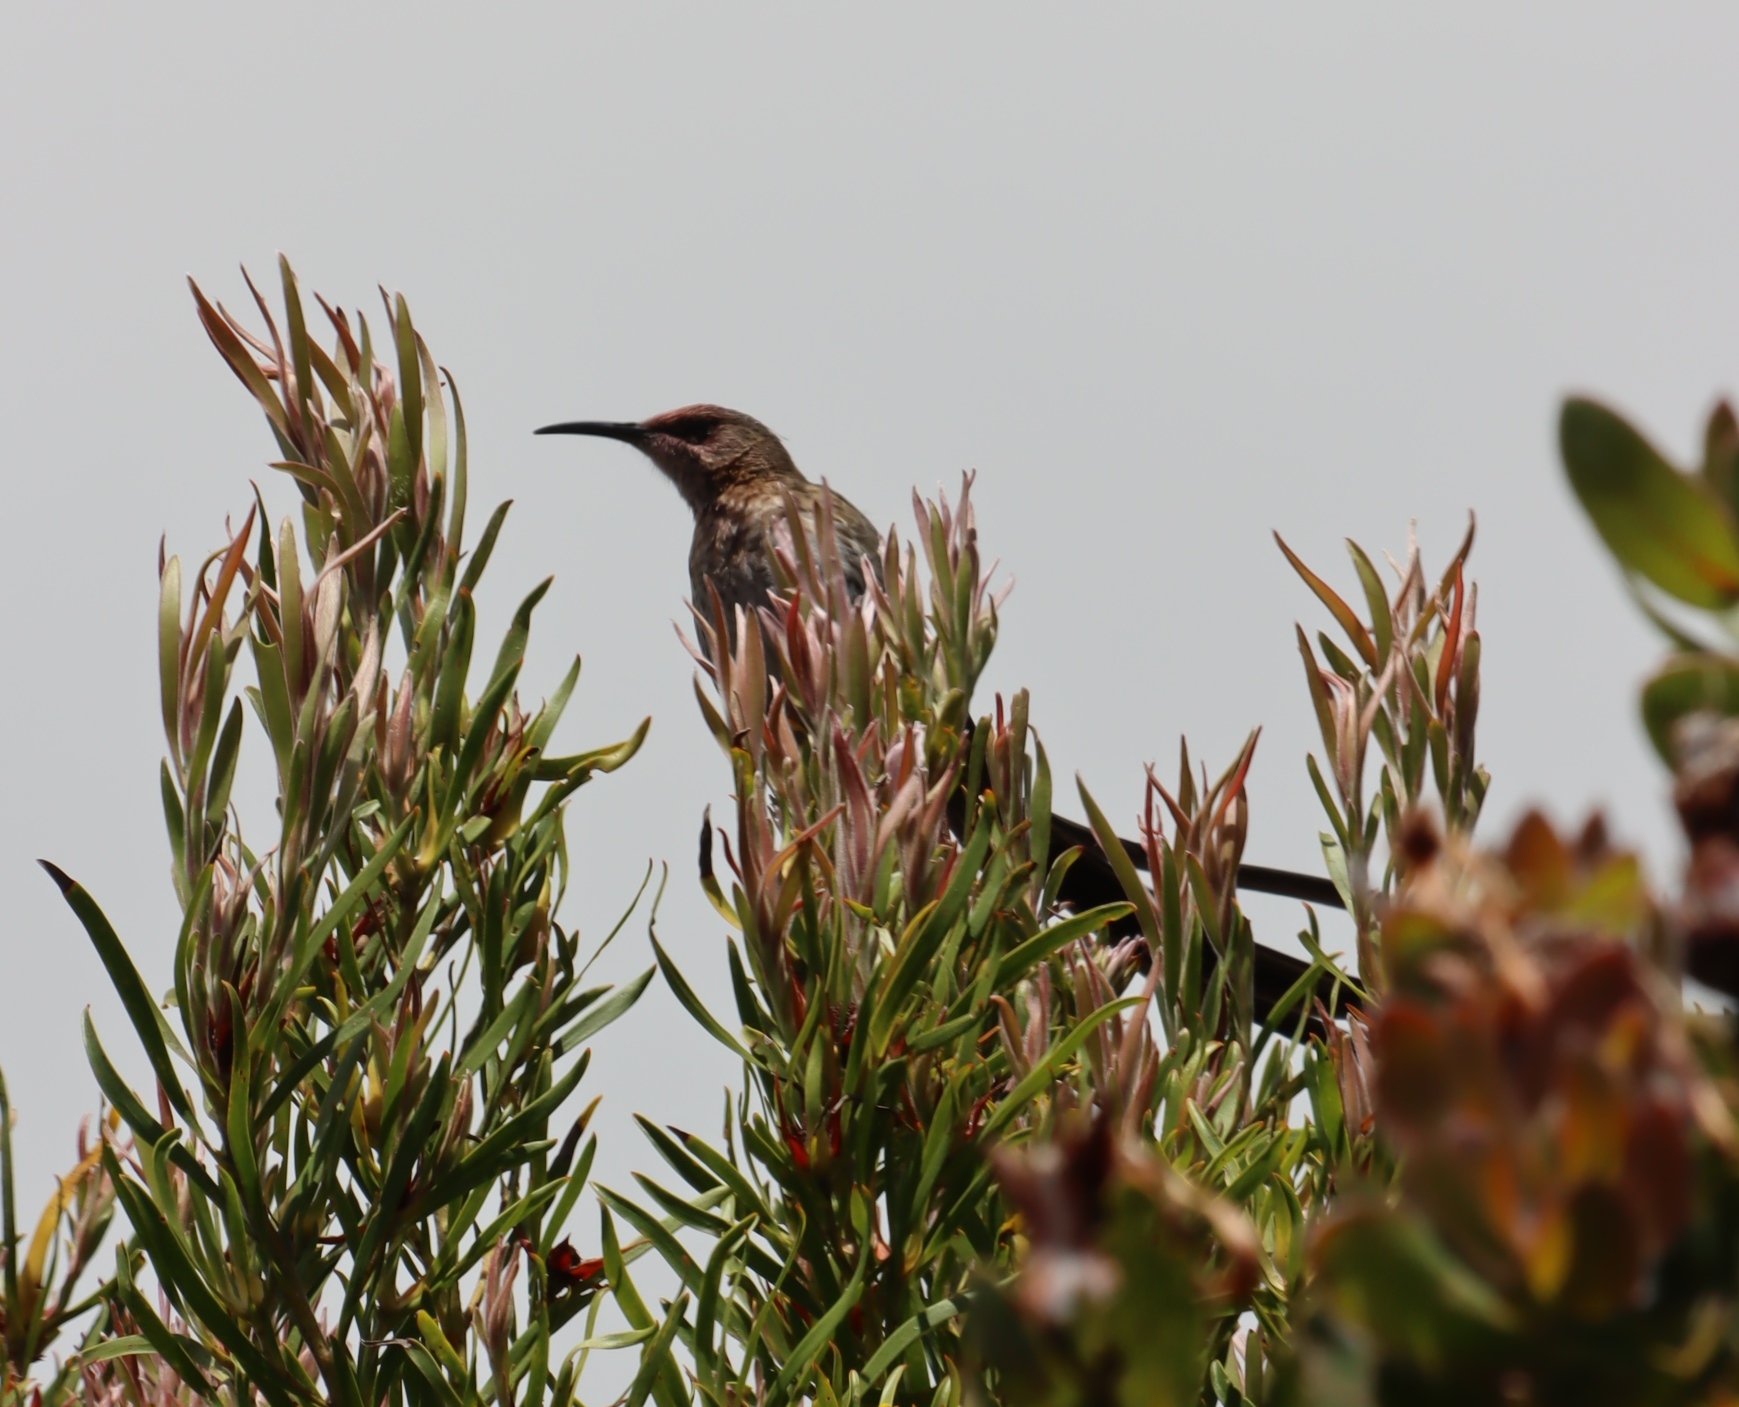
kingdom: Animalia
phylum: Chordata
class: Aves
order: Passeriformes
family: Promeropidae
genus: Promerops
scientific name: Promerops cafer
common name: Cape sugarbird
